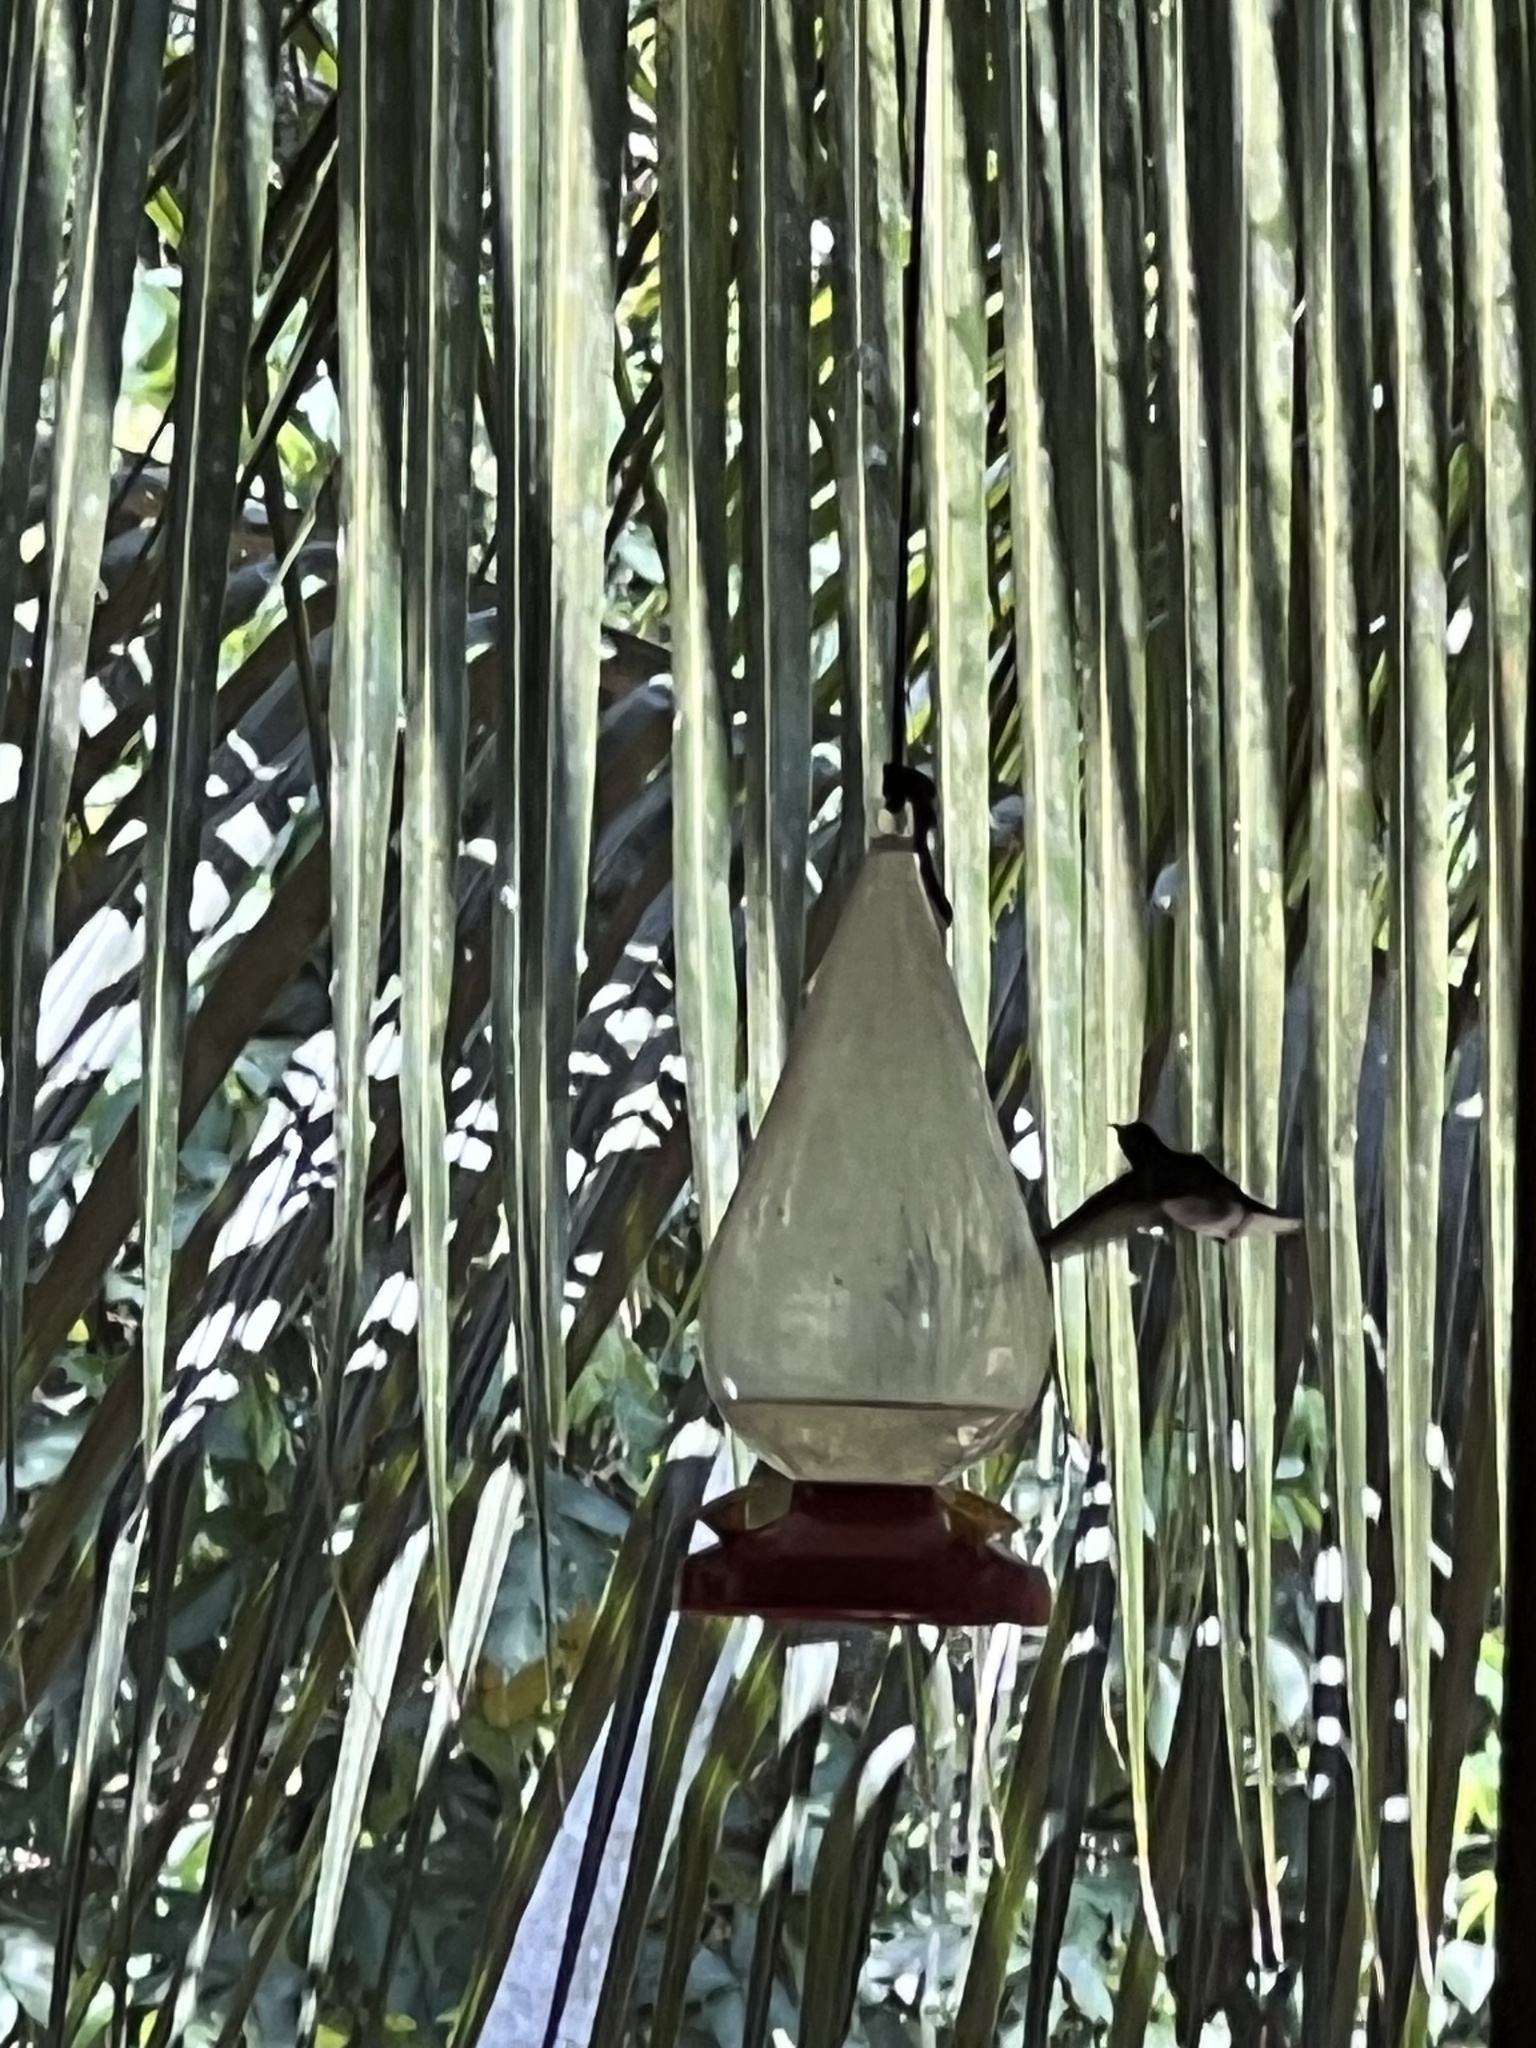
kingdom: Animalia
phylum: Chordata
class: Aves
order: Apodiformes
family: Trochilidae
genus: Florisuga
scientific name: Florisuga mellivora
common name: White-necked jacobin
